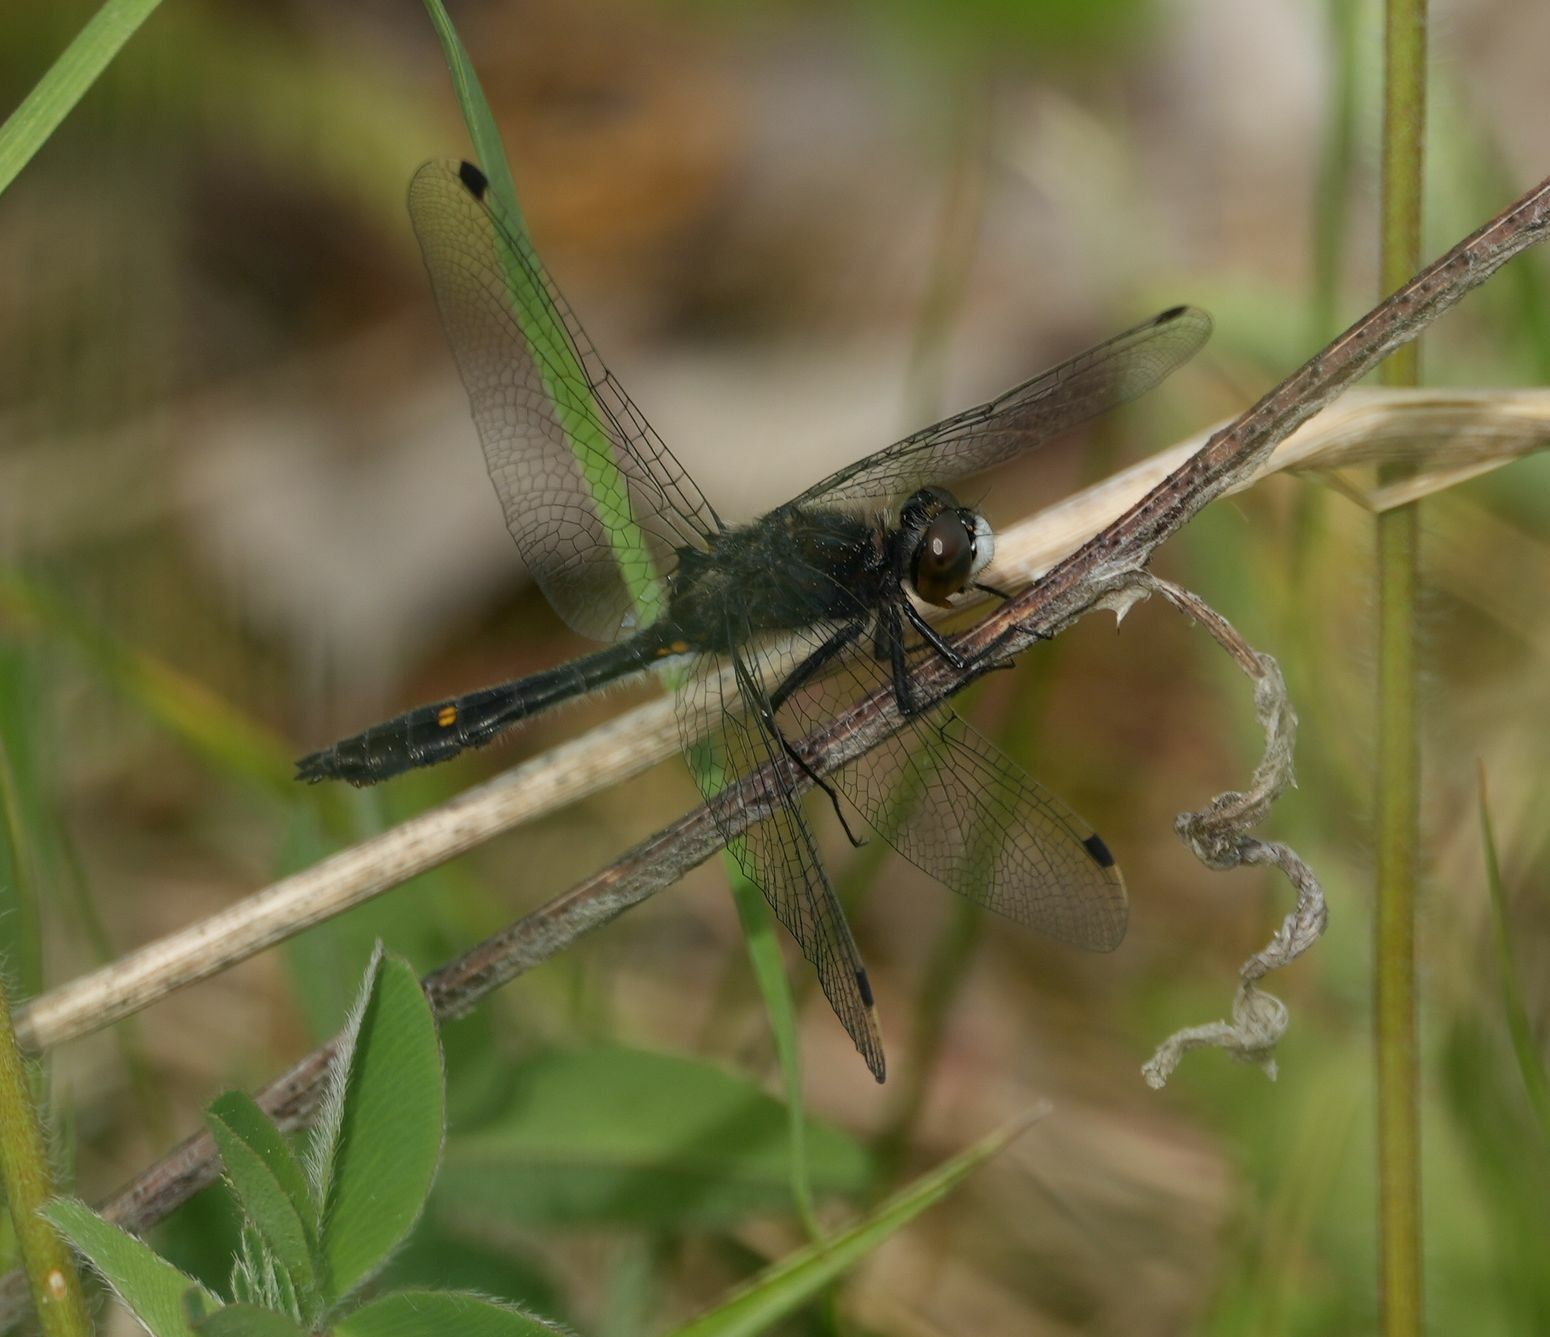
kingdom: Animalia
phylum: Arthropoda
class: Insecta
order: Odonata
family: Libellulidae
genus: Leucorrhinia
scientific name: Leucorrhinia intacta
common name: Dot-tailed whiteface
